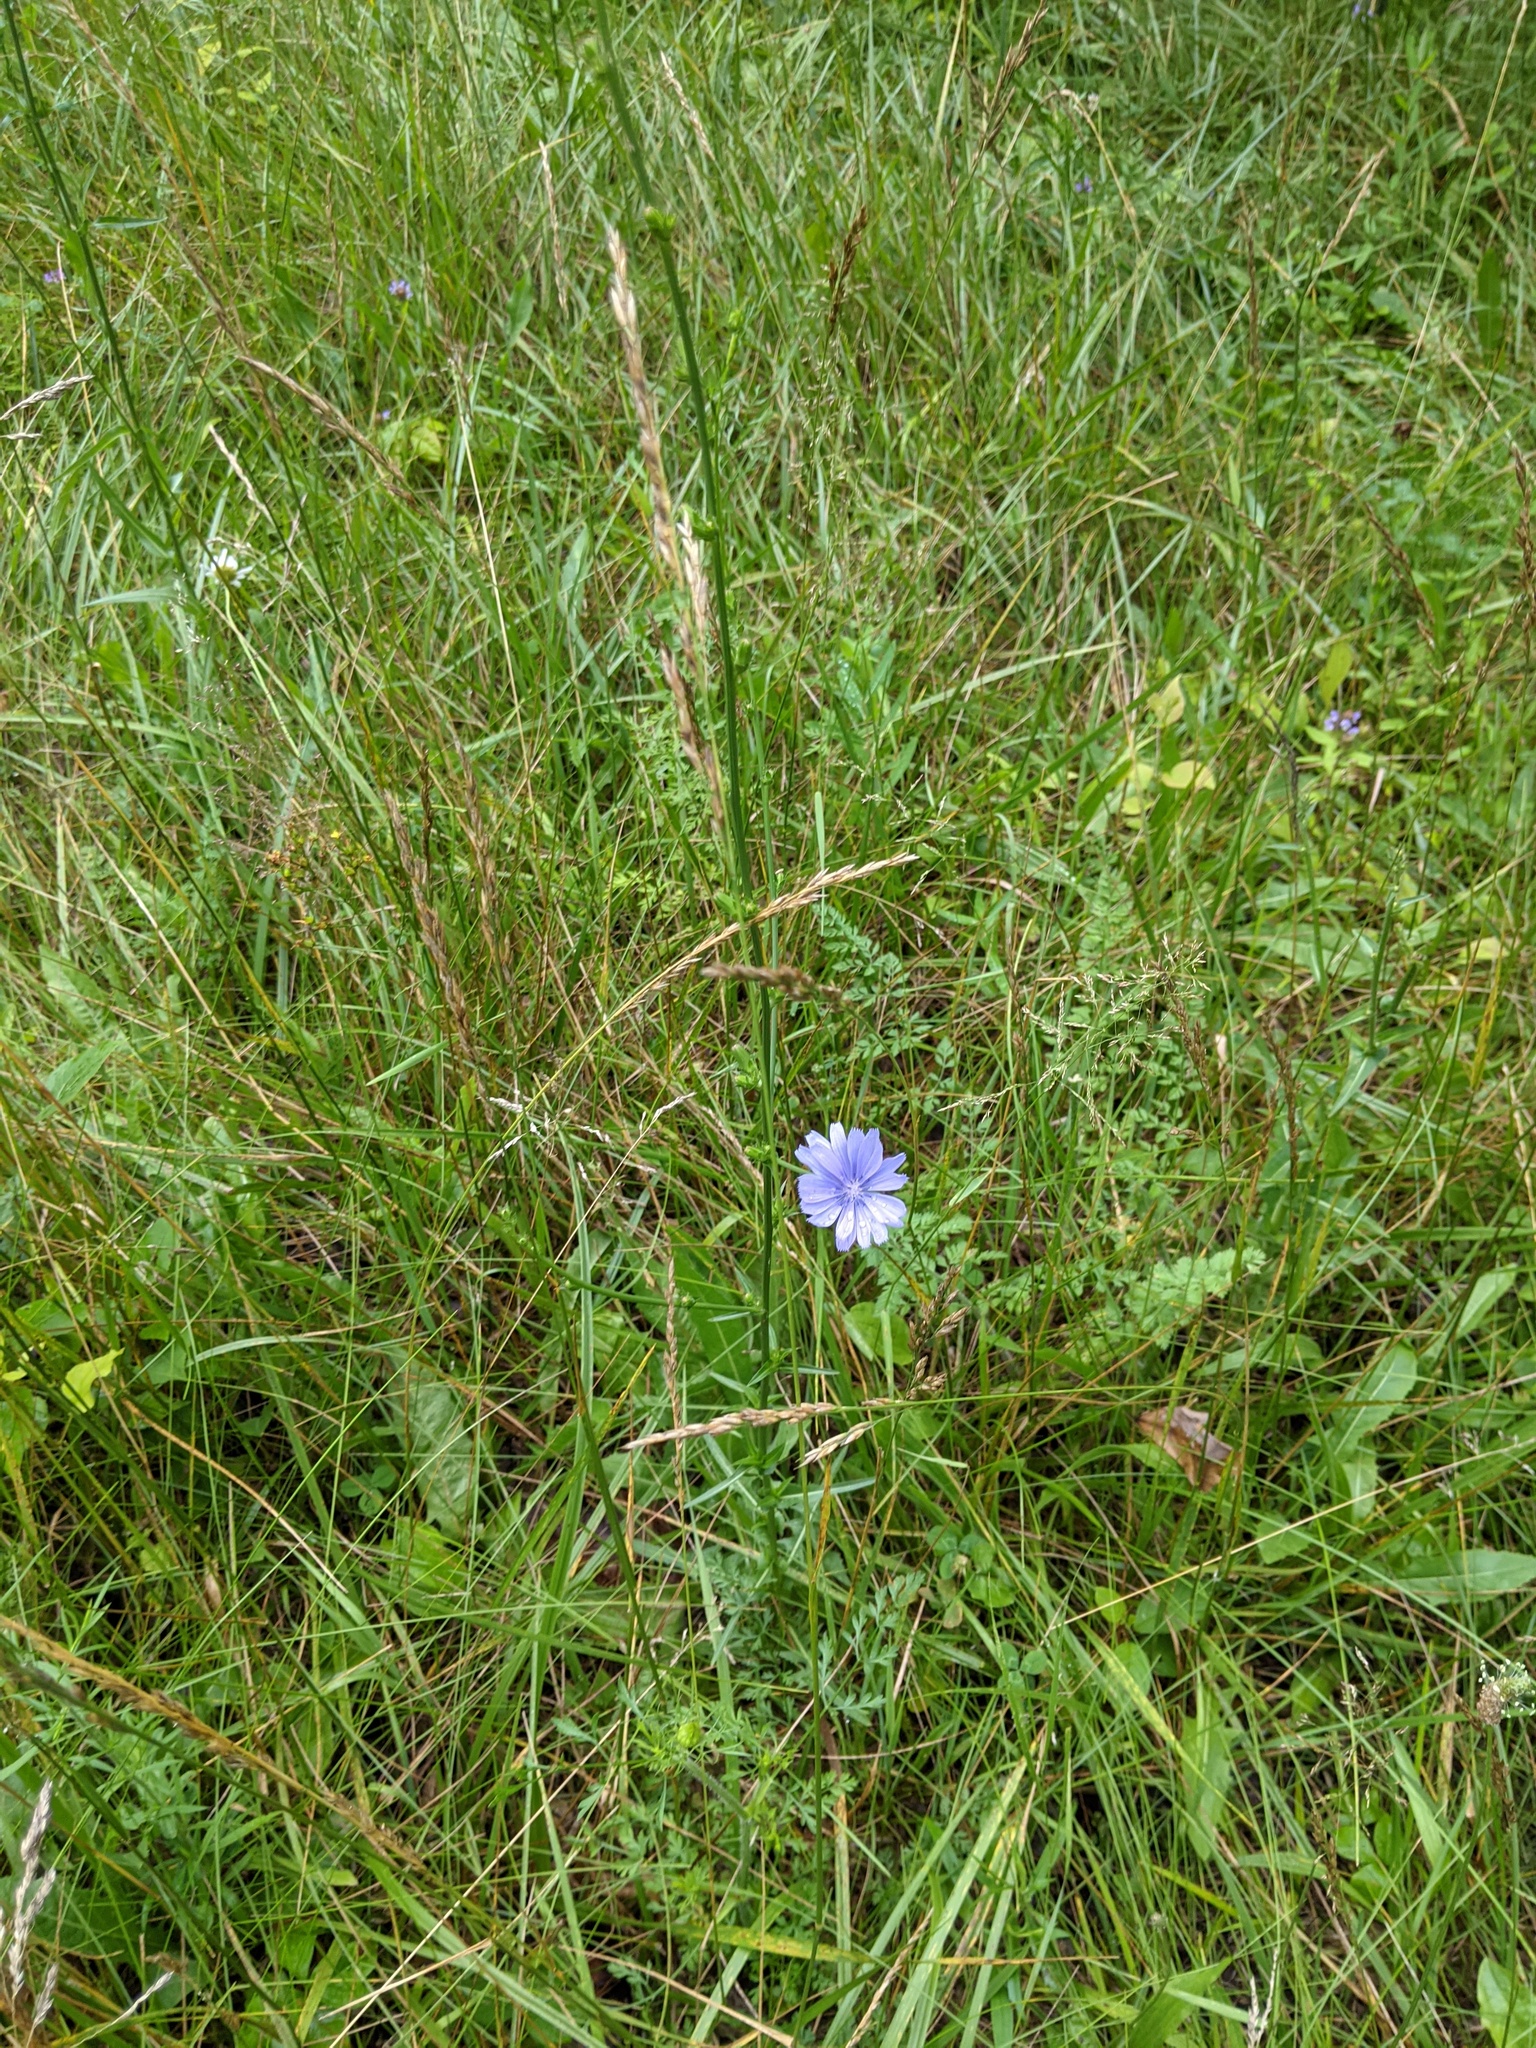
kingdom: Plantae
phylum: Tracheophyta
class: Magnoliopsida
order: Asterales
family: Asteraceae
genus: Cichorium
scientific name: Cichorium intybus
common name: Chicory
